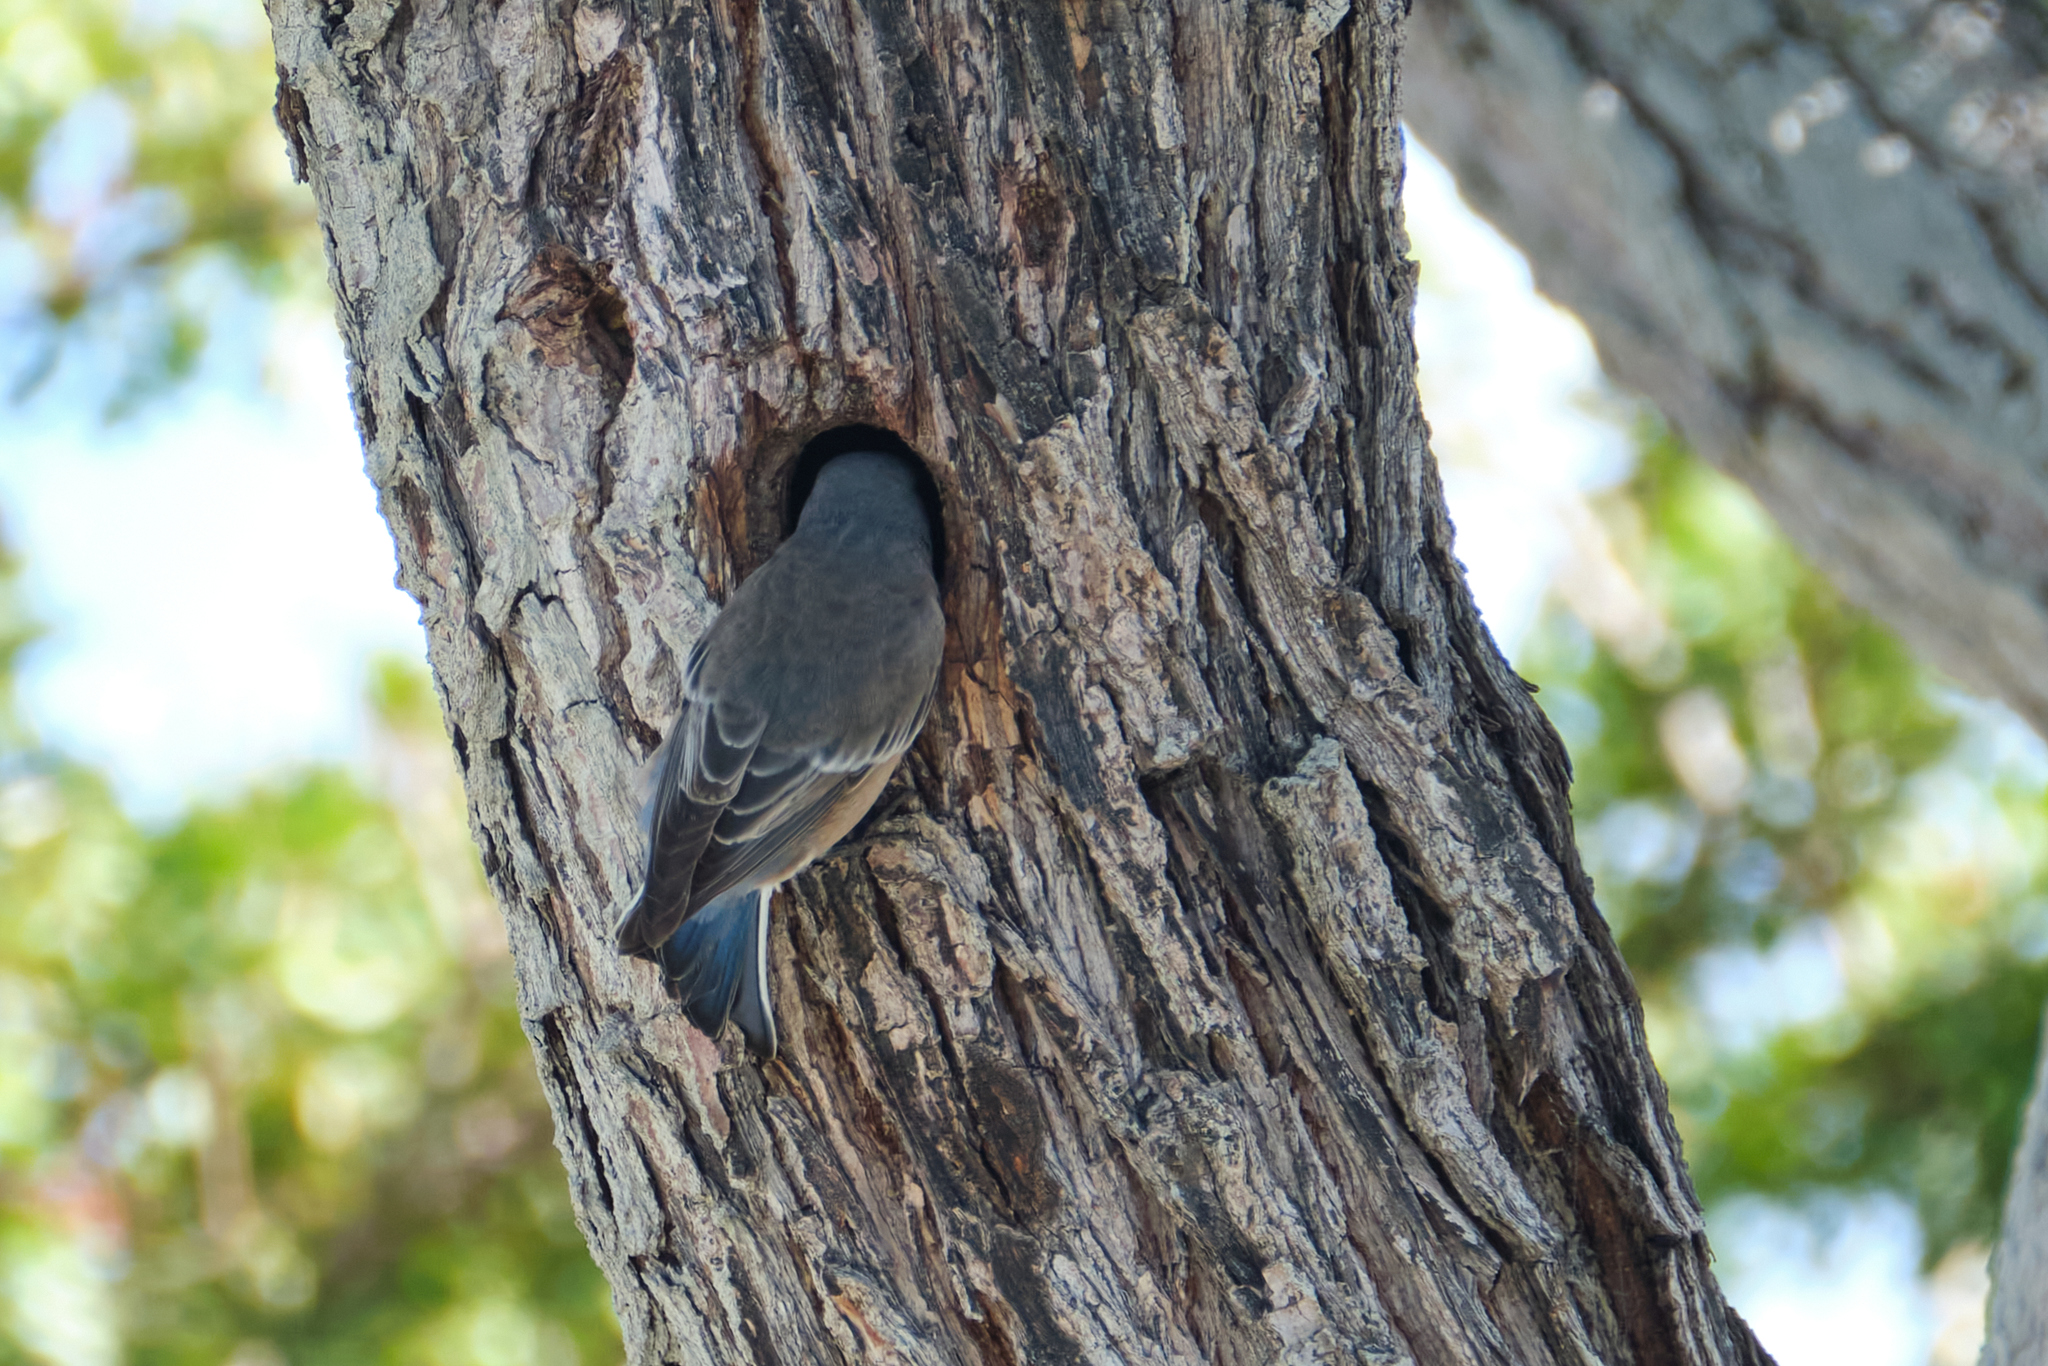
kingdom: Animalia
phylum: Chordata
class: Aves
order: Passeriformes
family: Turdidae
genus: Sialia
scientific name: Sialia mexicana
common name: Western bluebird
